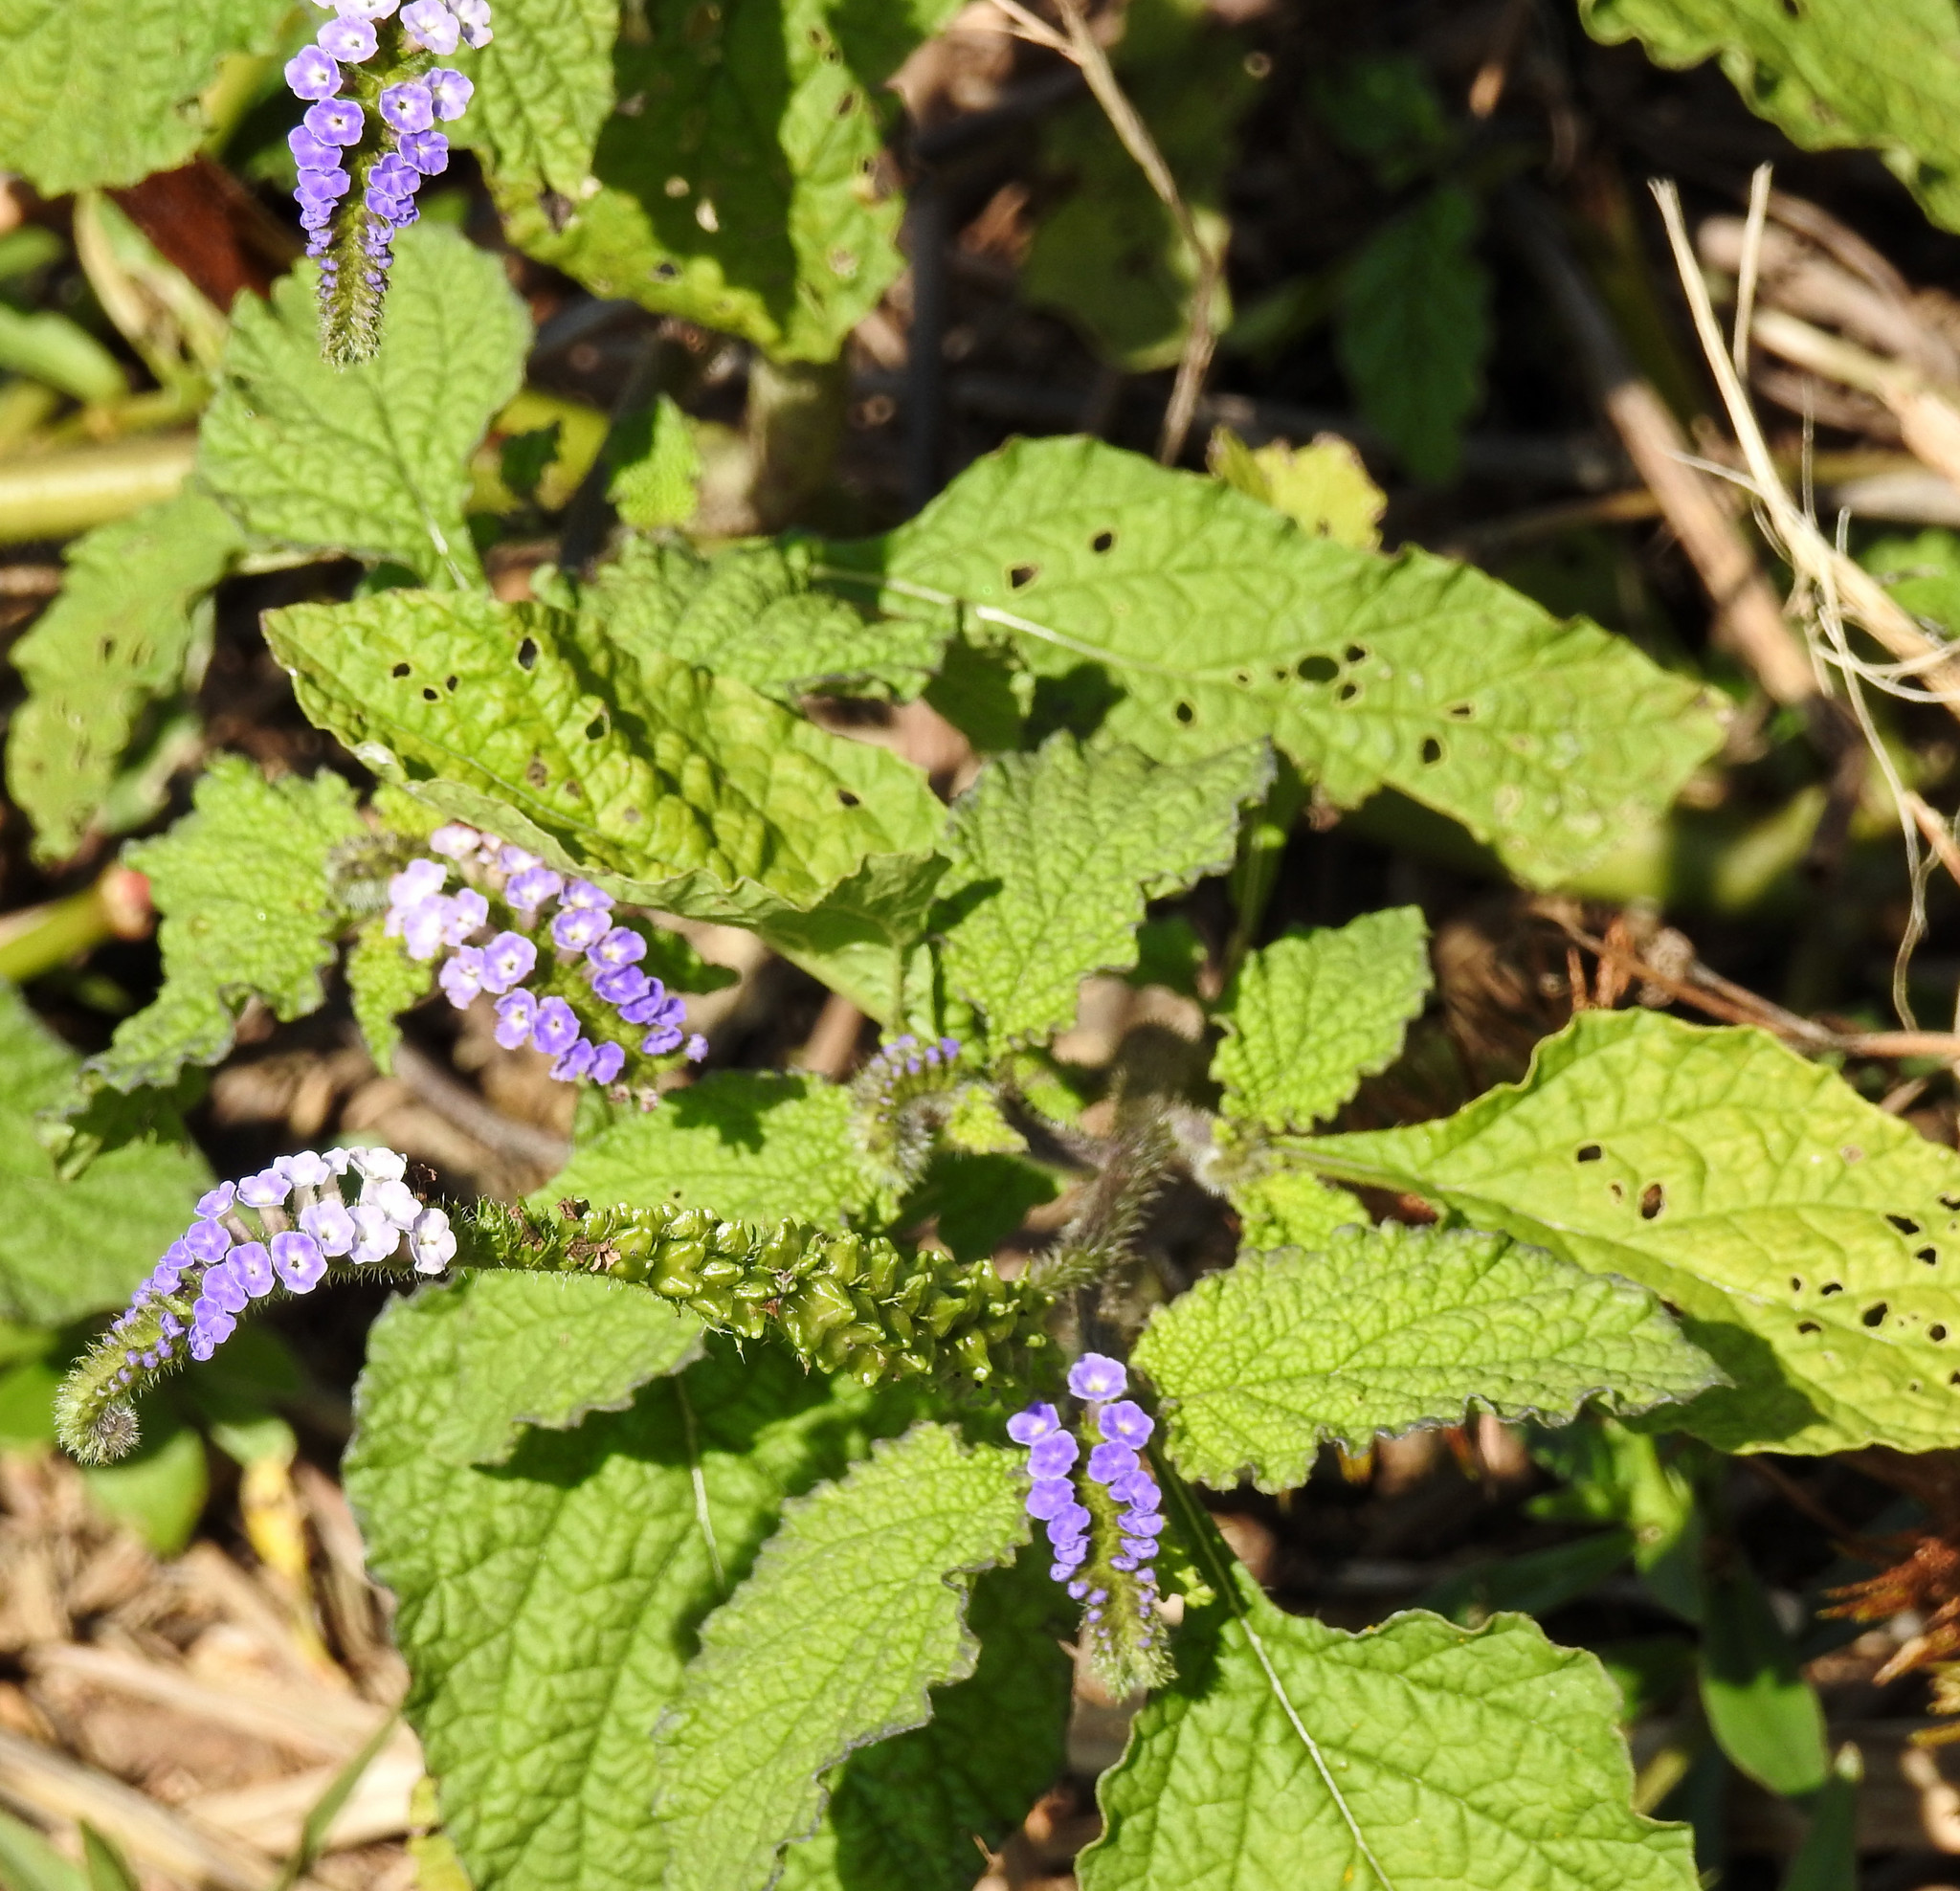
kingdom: Plantae
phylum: Tracheophyta
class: Magnoliopsida
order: Boraginales
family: Heliotropiaceae
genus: Heliotropium
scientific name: Heliotropium indicum
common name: Indian heliotrope
